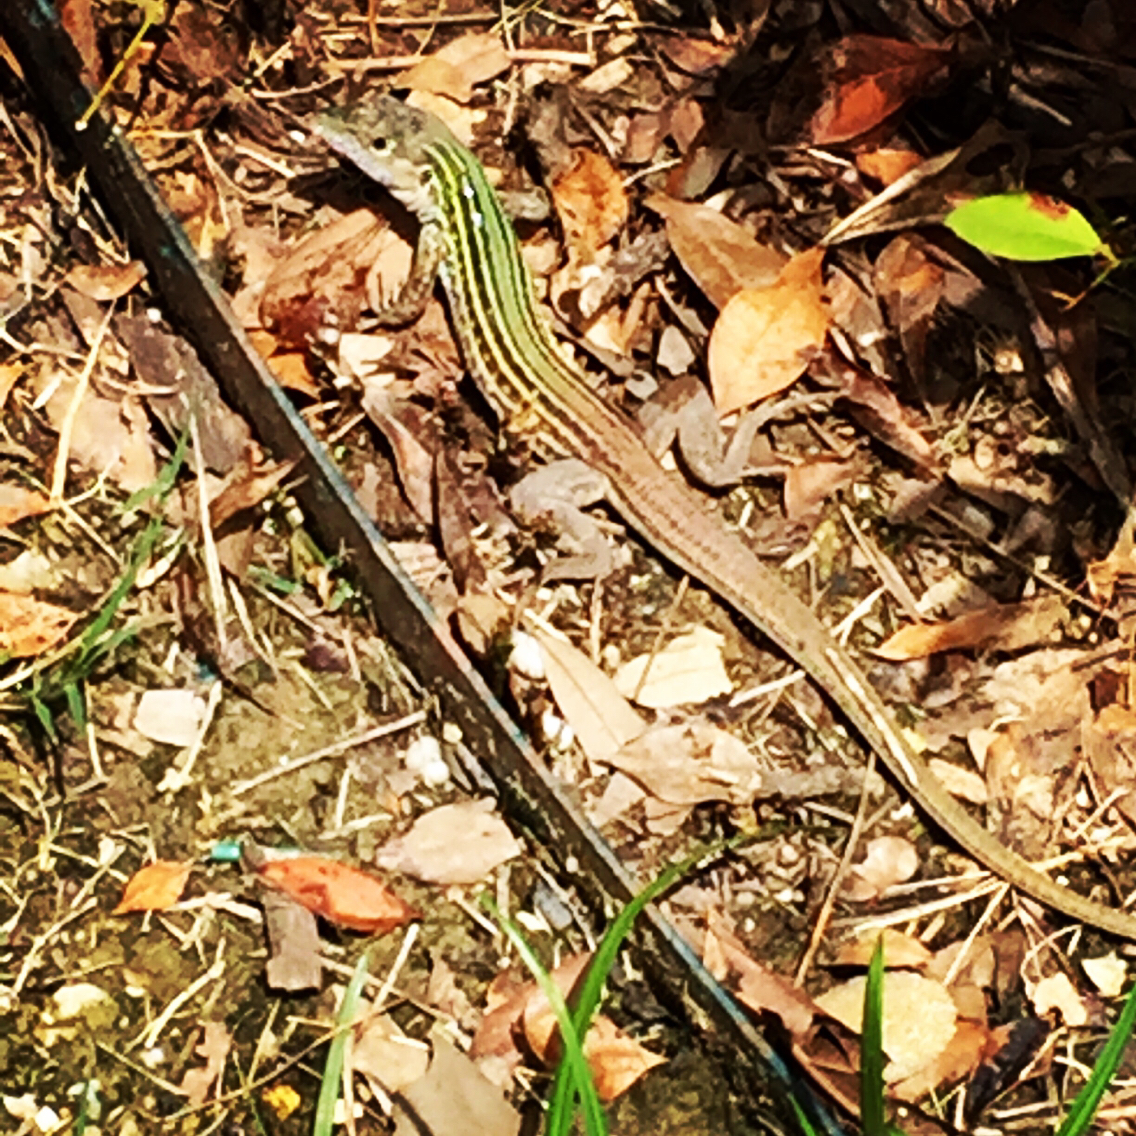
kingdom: Animalia
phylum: Chordata
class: Squamata
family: Teiidae
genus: Aspidoscelis
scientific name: Aspidoscelis gularis
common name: Eastern spotted whiptail
